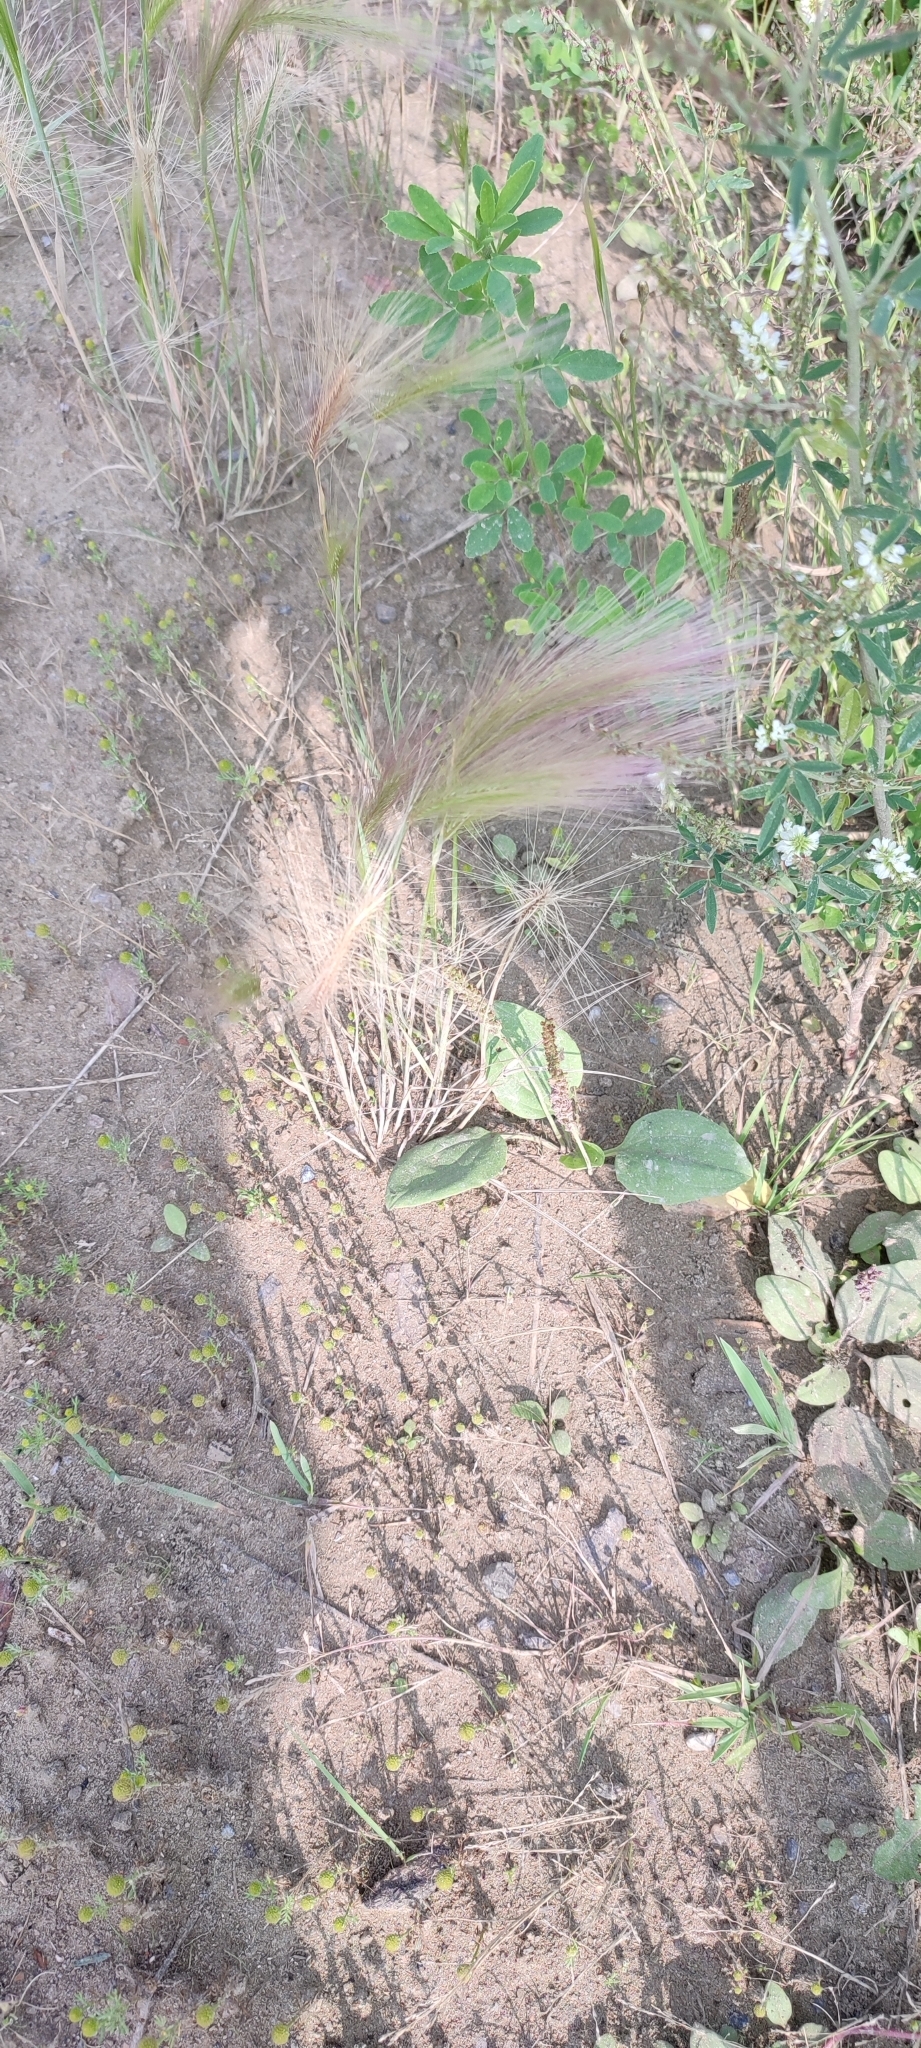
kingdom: Plantae
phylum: Tracheophyta
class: Liliopsida
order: Poales
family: Poaceae
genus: Hordeum
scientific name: Hordeum jubatum
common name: Foxtail barley
